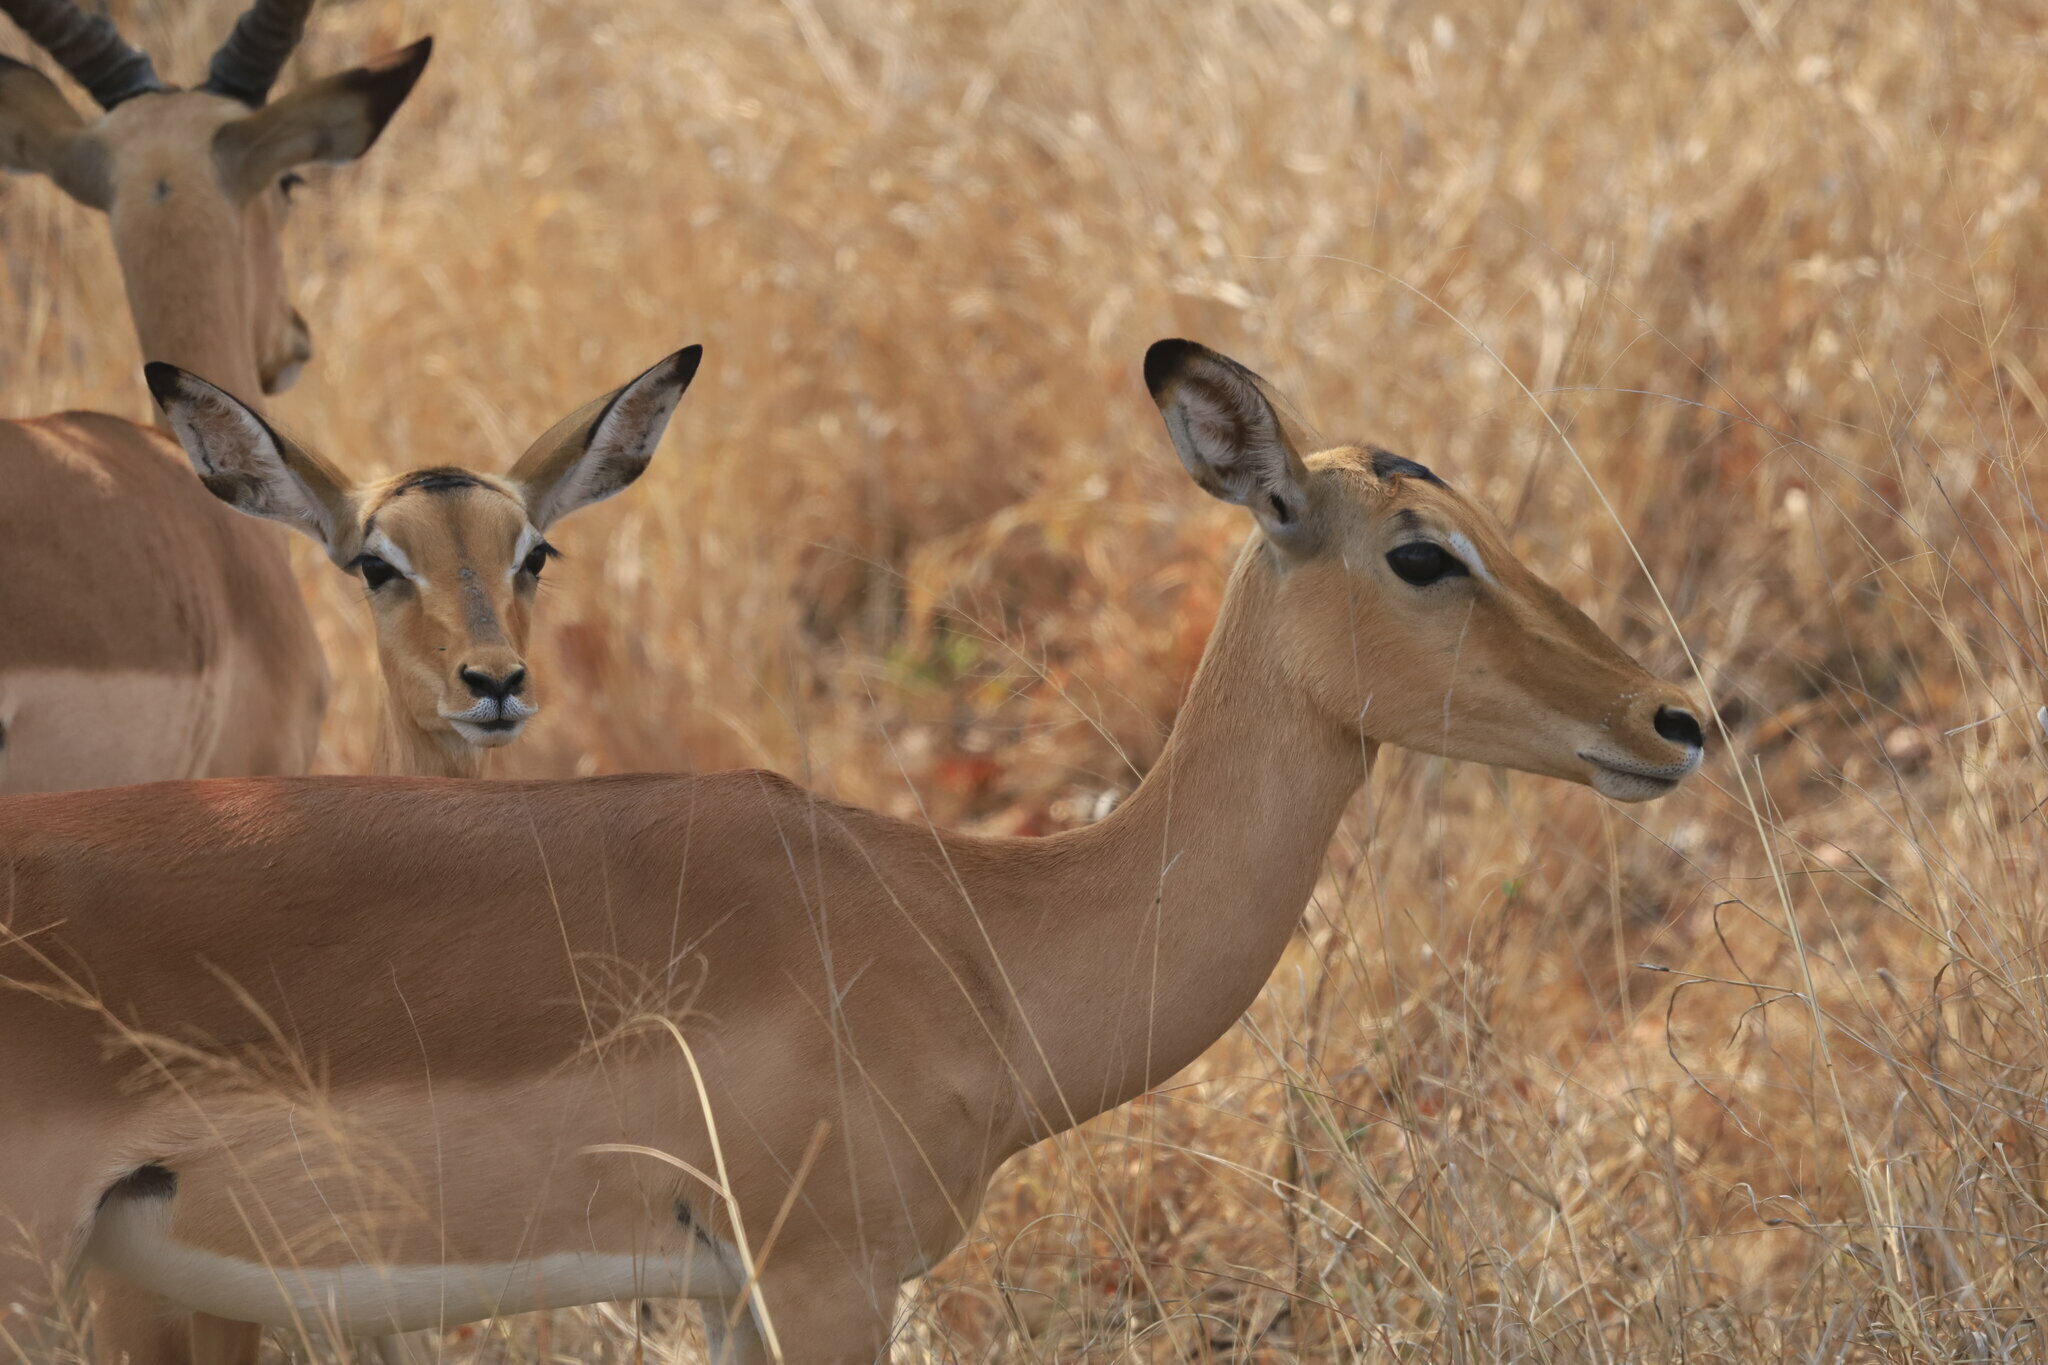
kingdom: Animalia
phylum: Chordata
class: Mammalia
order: Artiodactyla
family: Bovidae
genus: Aepyceros
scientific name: Aepyceros melampus
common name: Impala
